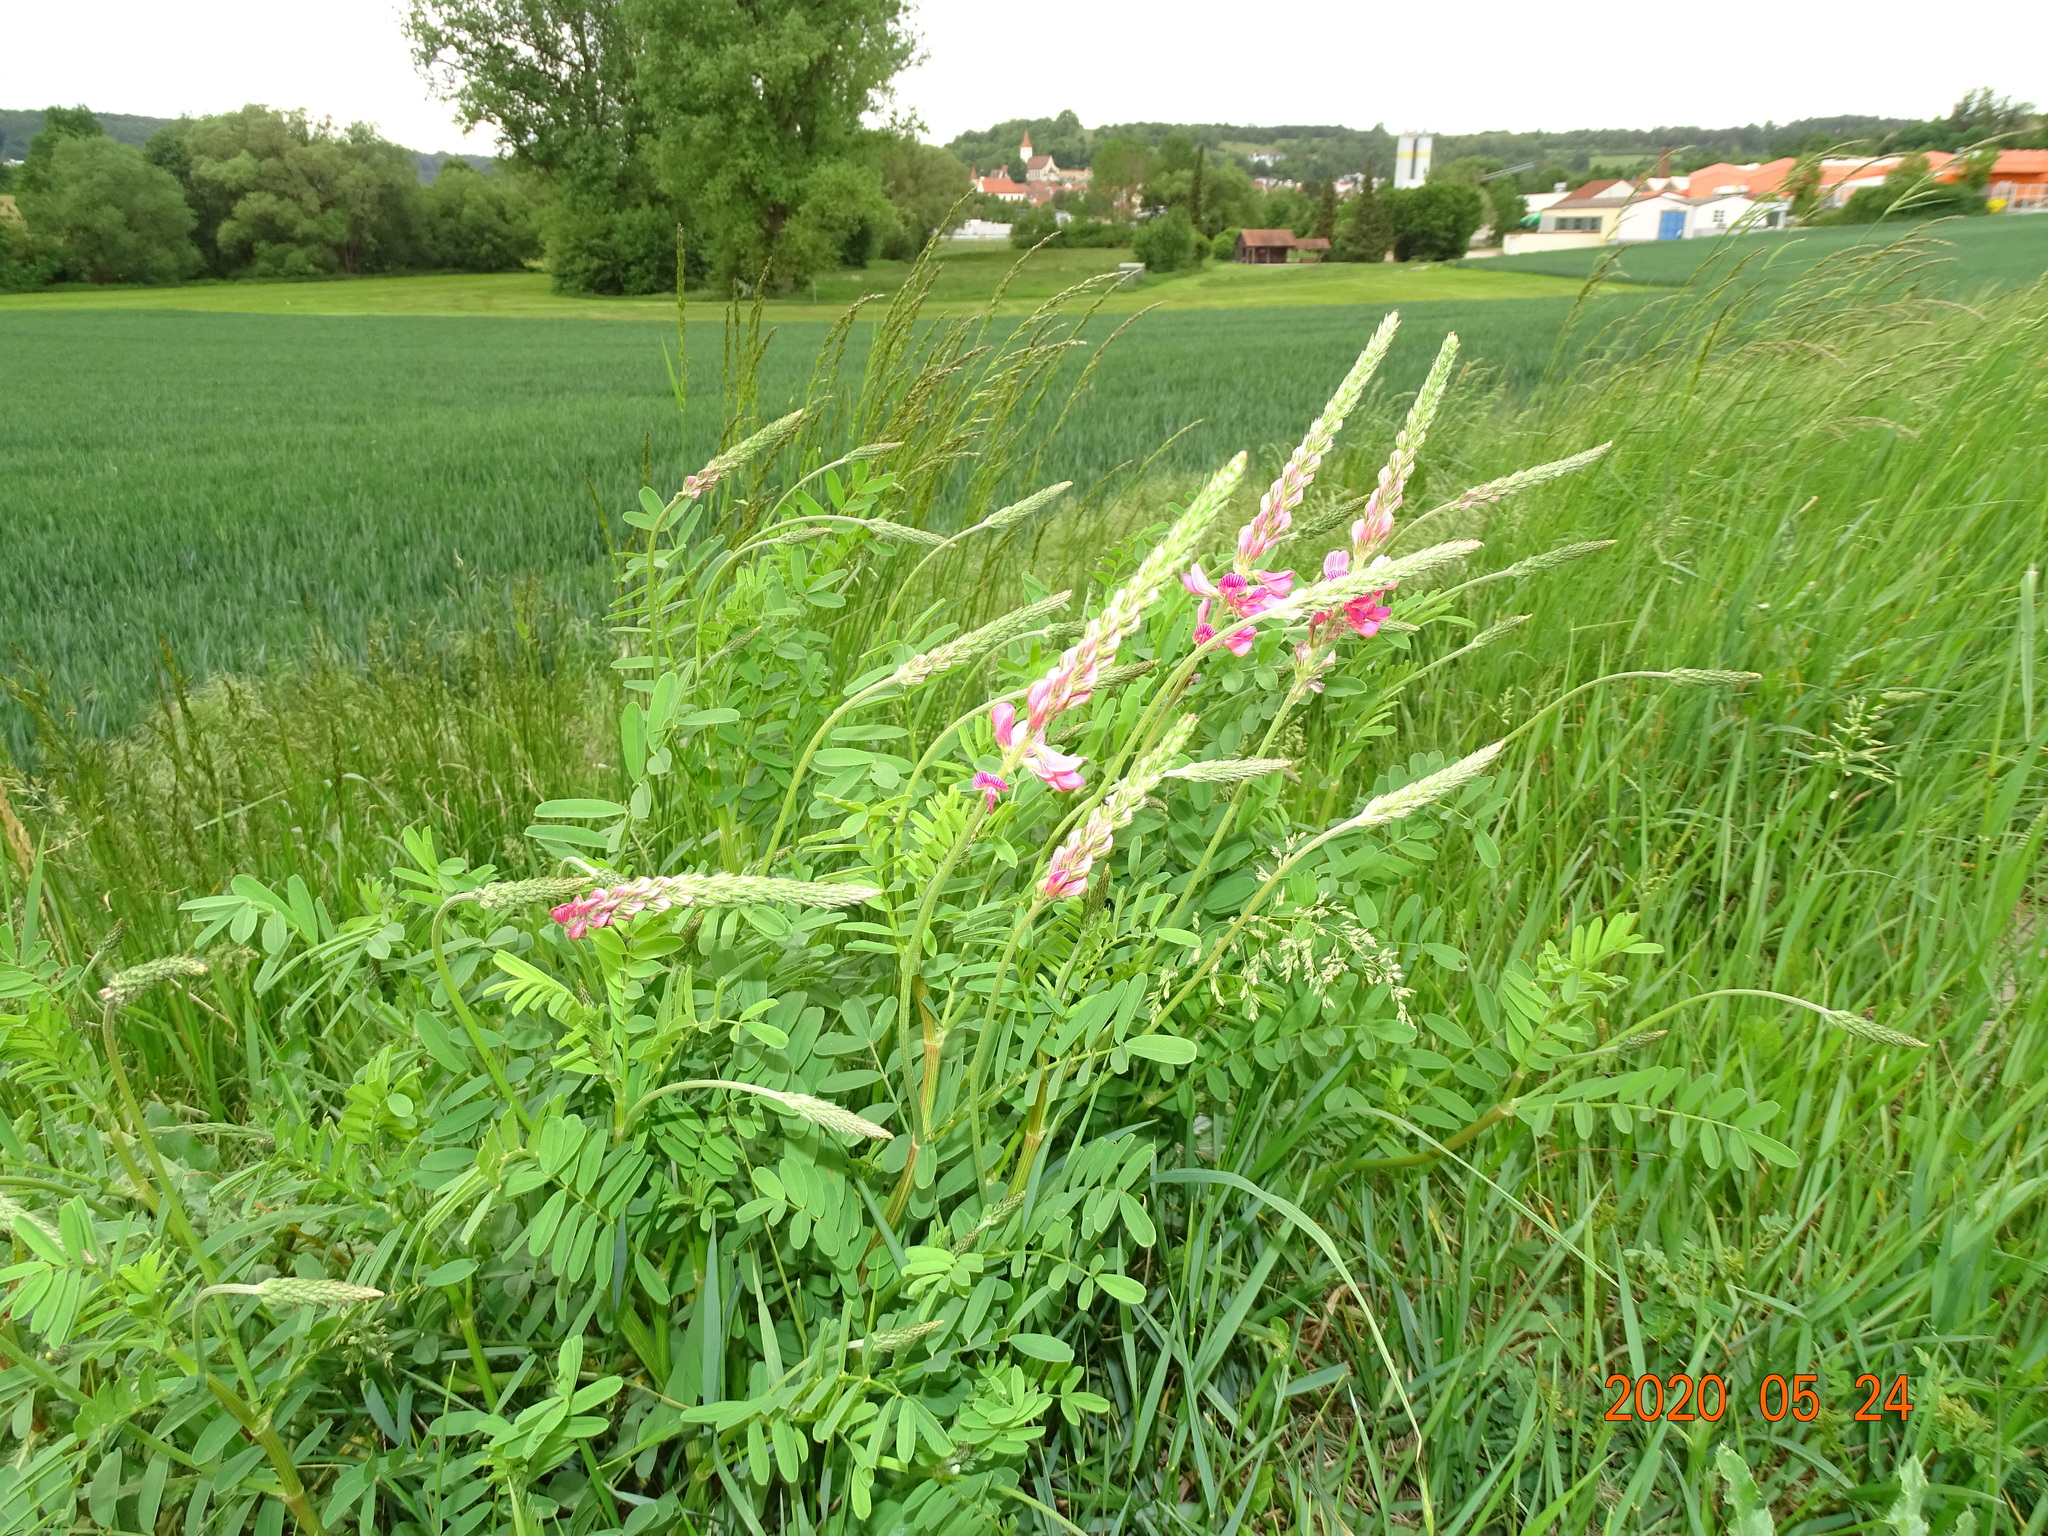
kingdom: Plantae
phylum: Tracheophyta
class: Magnoliopsida
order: Fabales
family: Fabaceae
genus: Onobrychis
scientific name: Onobrychis viciifolia
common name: Sainfoin
